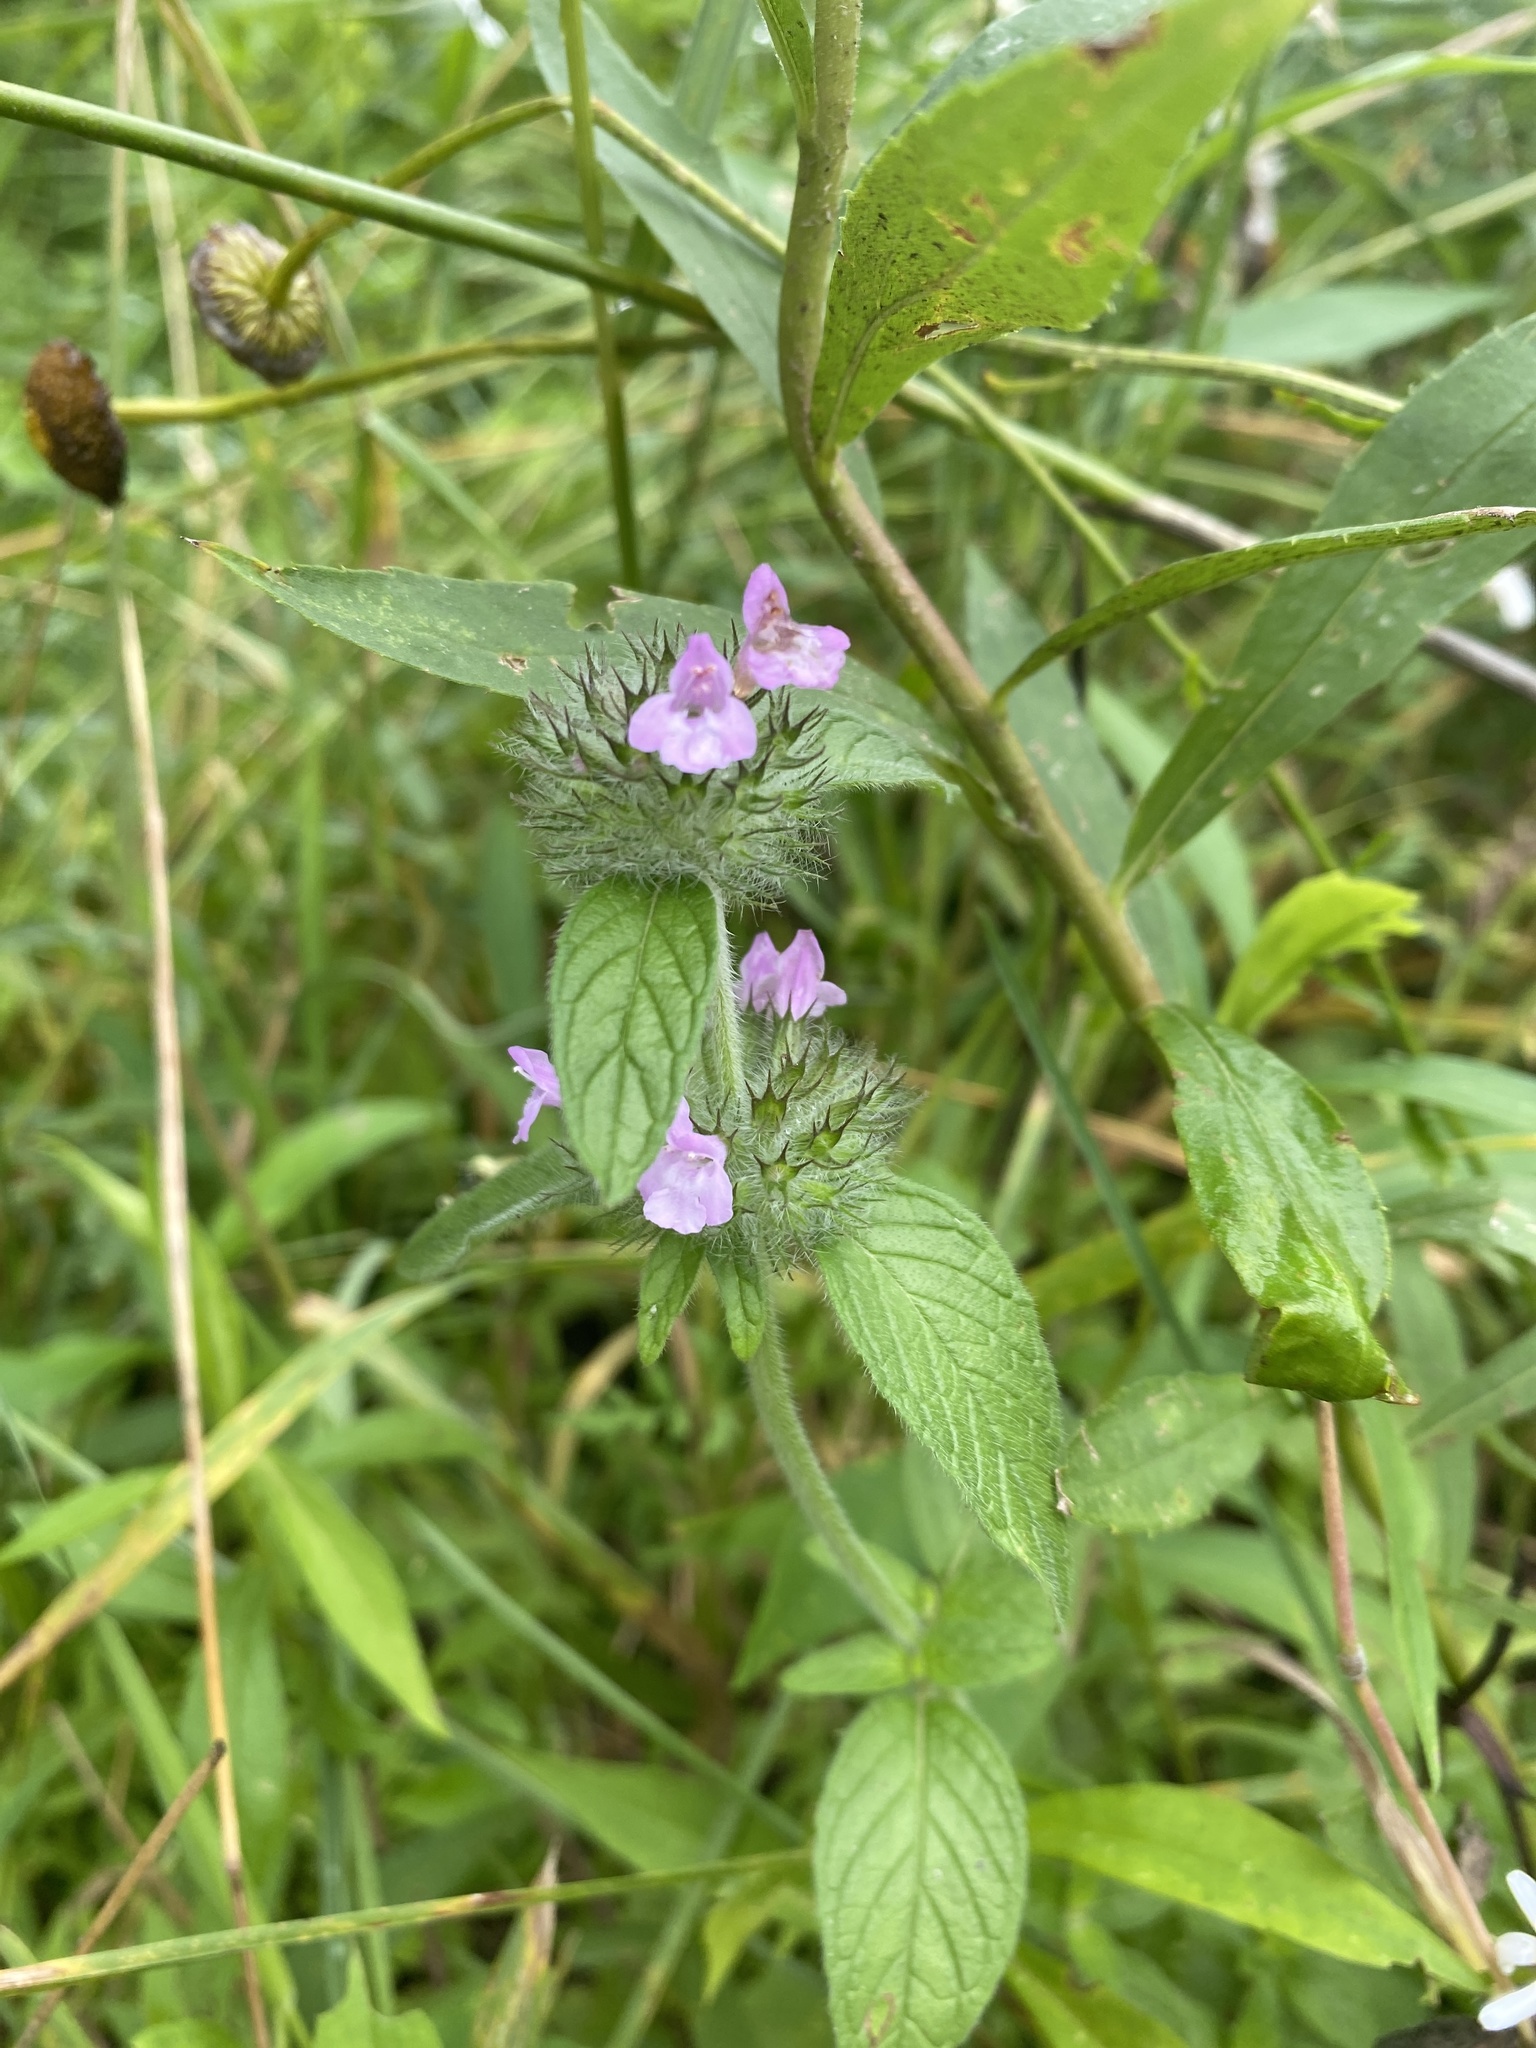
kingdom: Plantae
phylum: Tracheophyta
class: Magnoliopsida
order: Lamiales
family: Lamiaceae
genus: Clinopodium
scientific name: Clinopodium vulgare
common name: Wild basil
